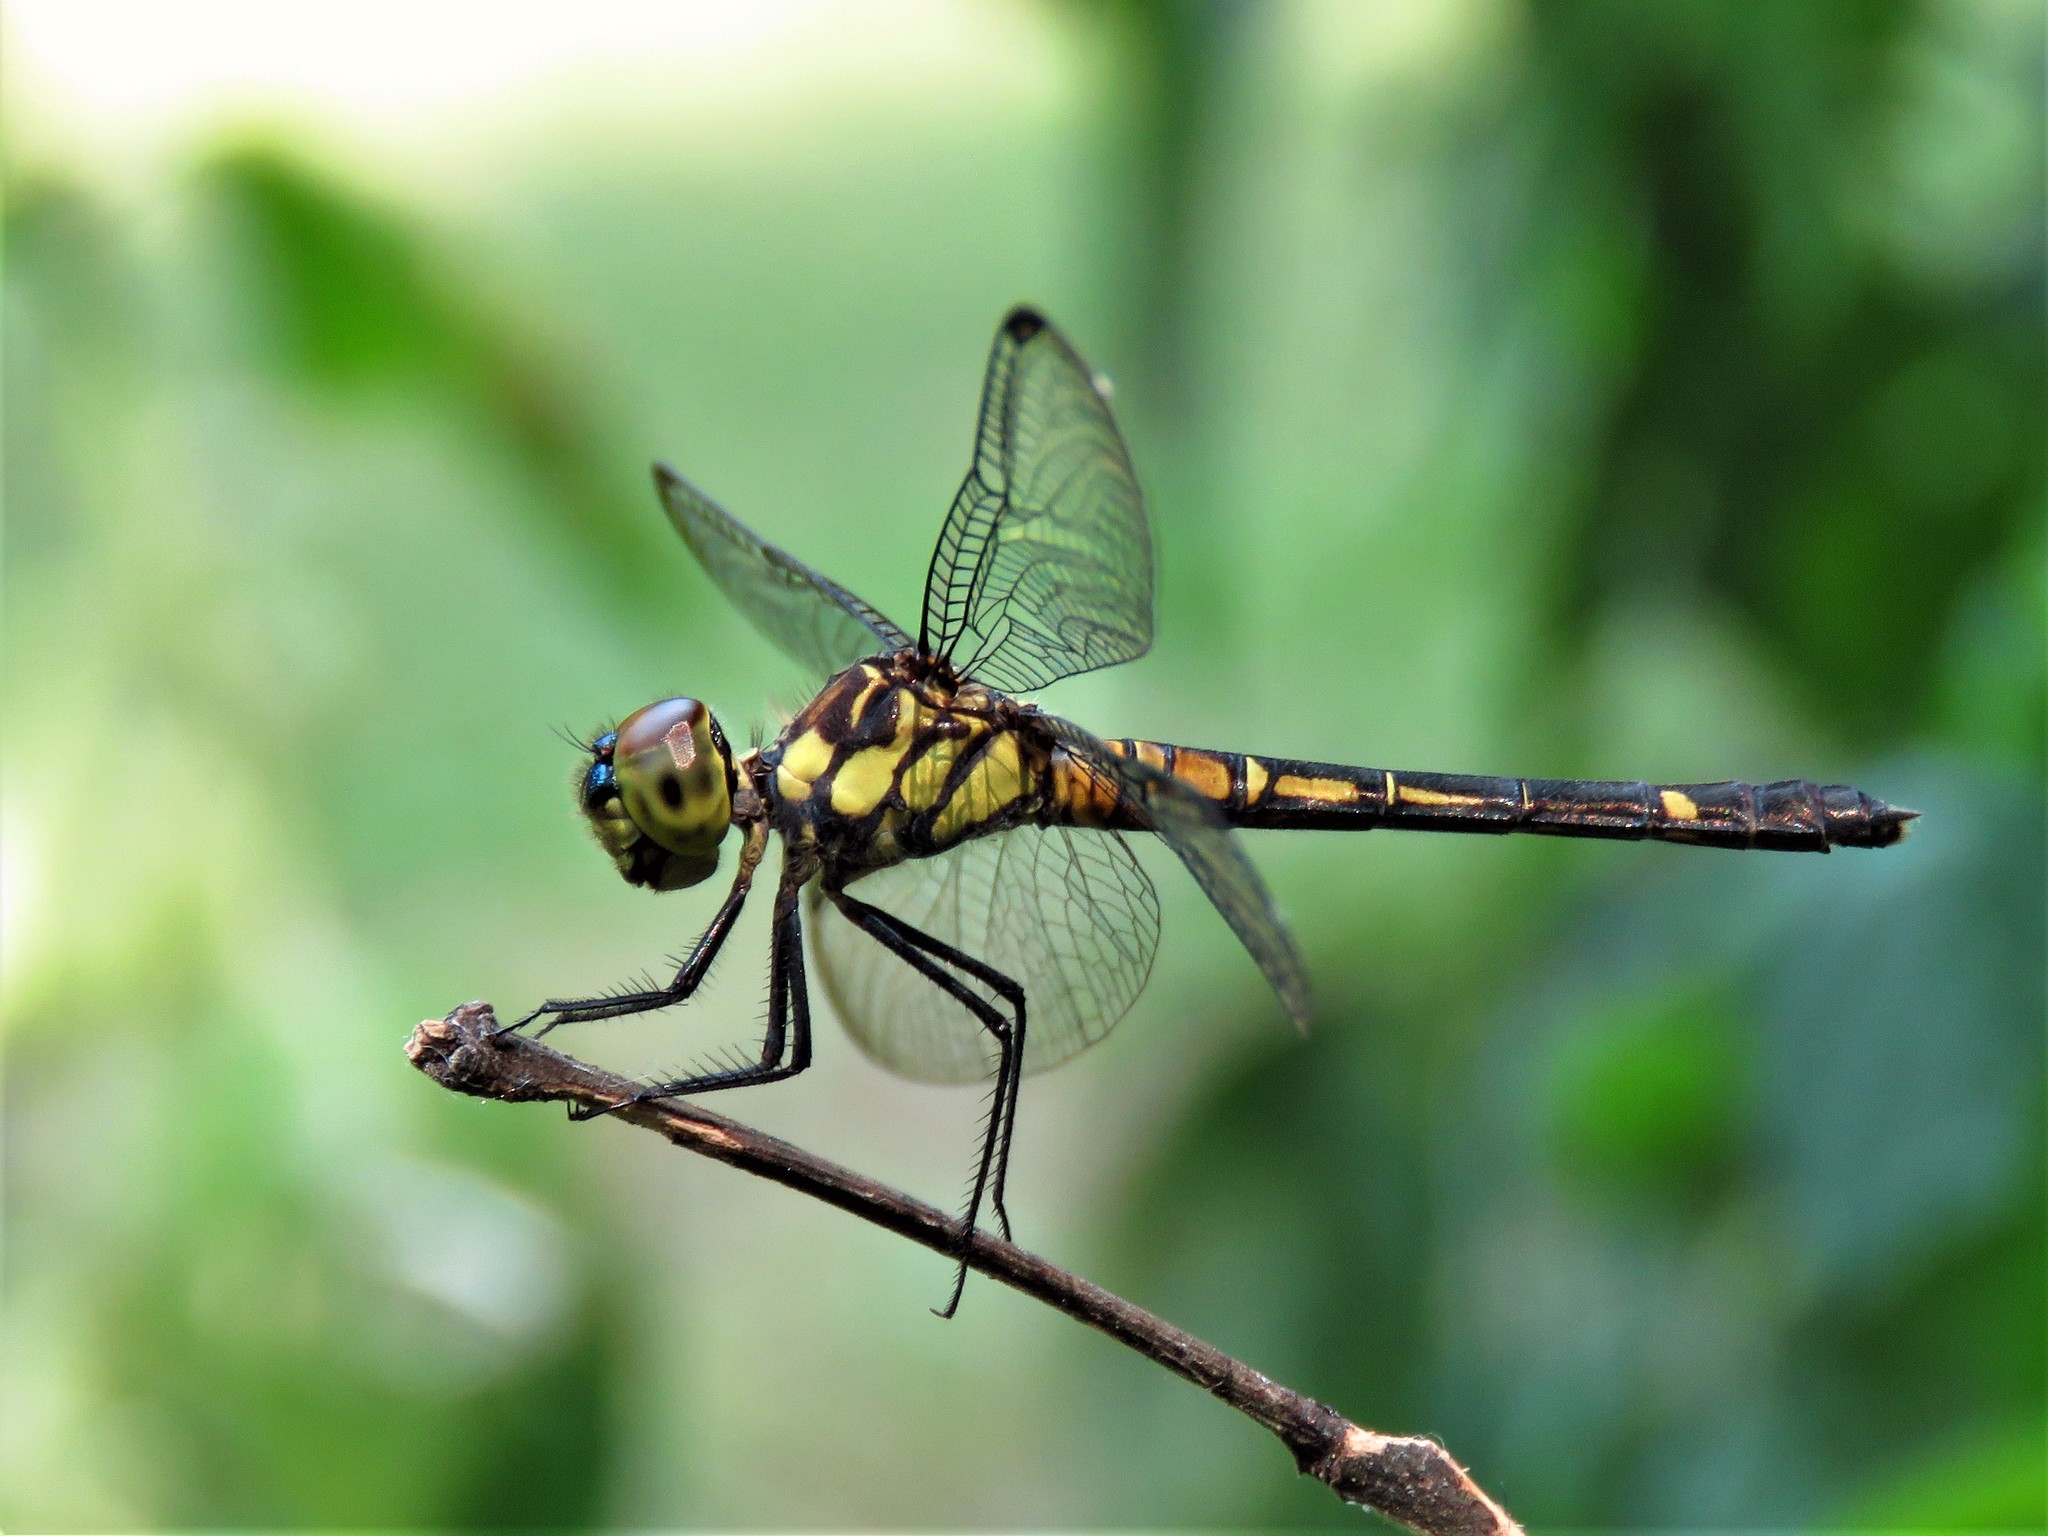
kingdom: Animalia
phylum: Arthropoda
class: Insecta
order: Odonata
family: Libellulidae
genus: Chalcostephia
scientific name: Chalcostephia flavifrons
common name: Inspector
